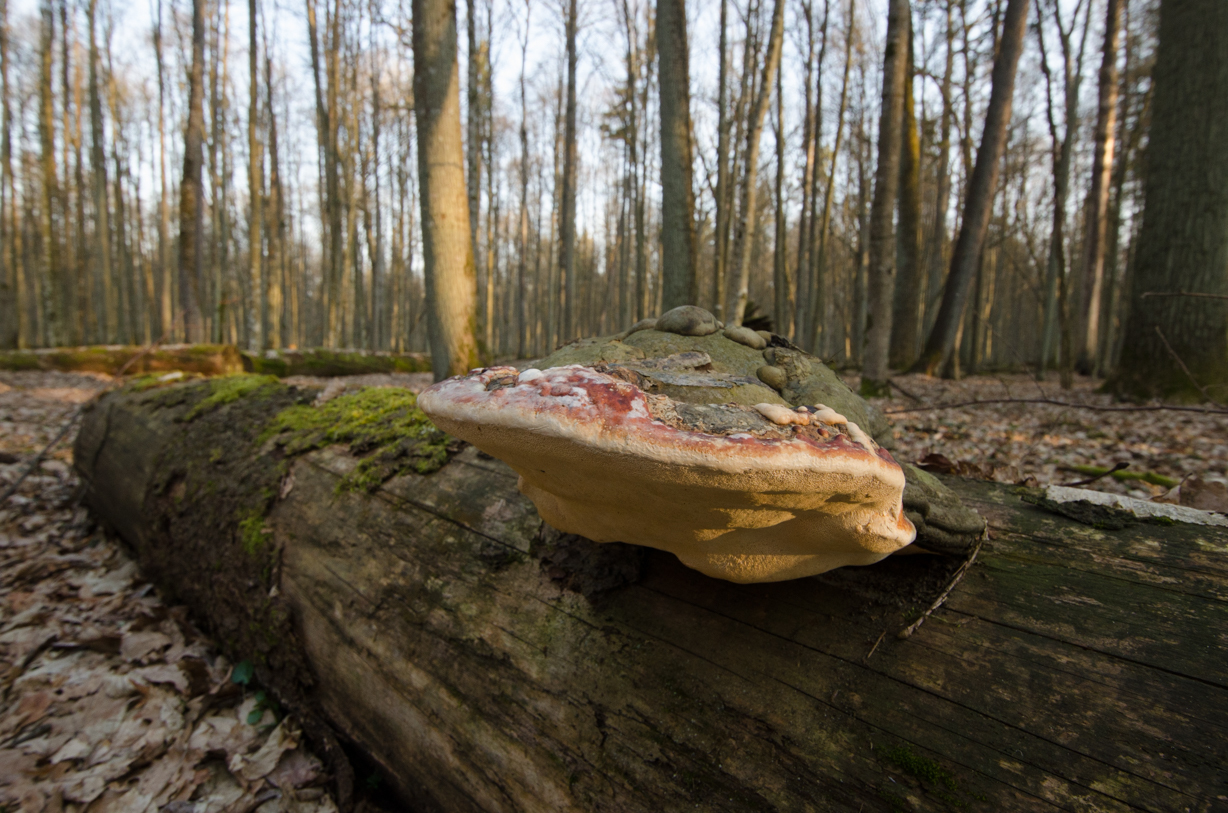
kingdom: Fungi
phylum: Basidiomycota
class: Agaricomycetes
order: Polyporales
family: Fomitopsidaceae
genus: Fomitopsis
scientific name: Fomitopsis pinicola
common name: Red-belted bracket
